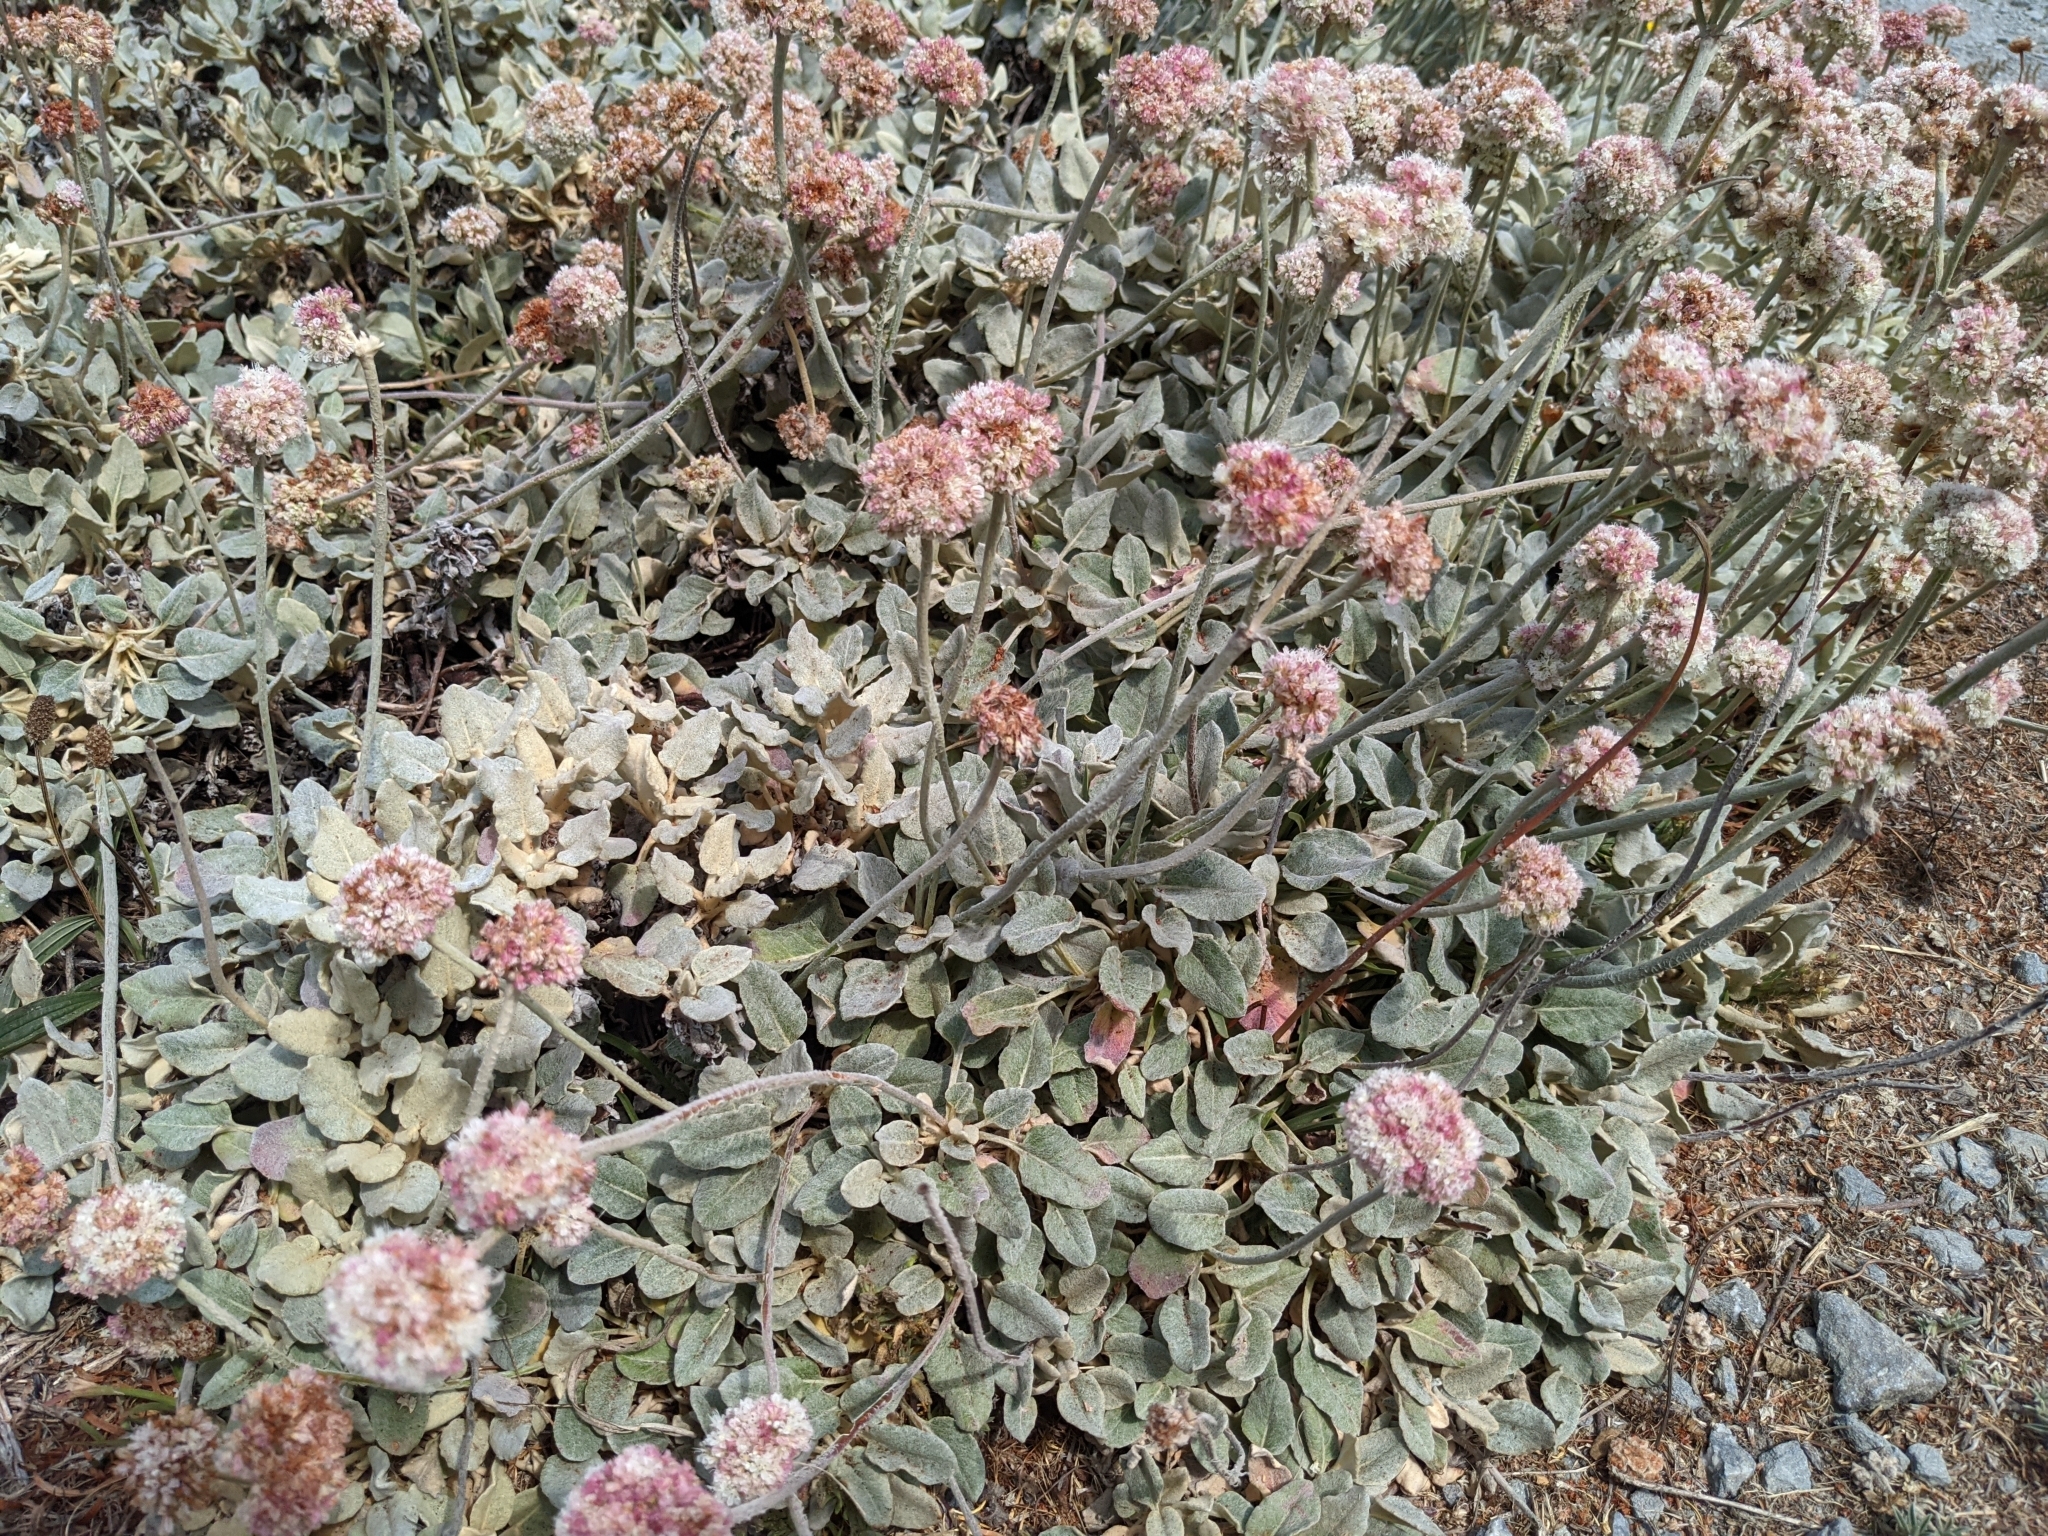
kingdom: Plantae
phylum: Tracheophyta
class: Magnoliopsida
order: Caryophyllales
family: Polygonaceae
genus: Eriogonum
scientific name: Eriogonum latifolium
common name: Seaside wild buckwheat
